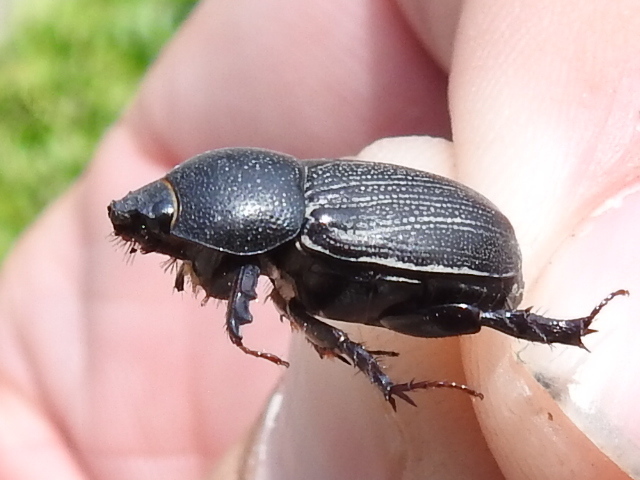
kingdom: Animalia
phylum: Arthropoda
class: Insecta
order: Coleoptera
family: Scarabaeidae
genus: Euetheola
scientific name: Euetheola humilis
